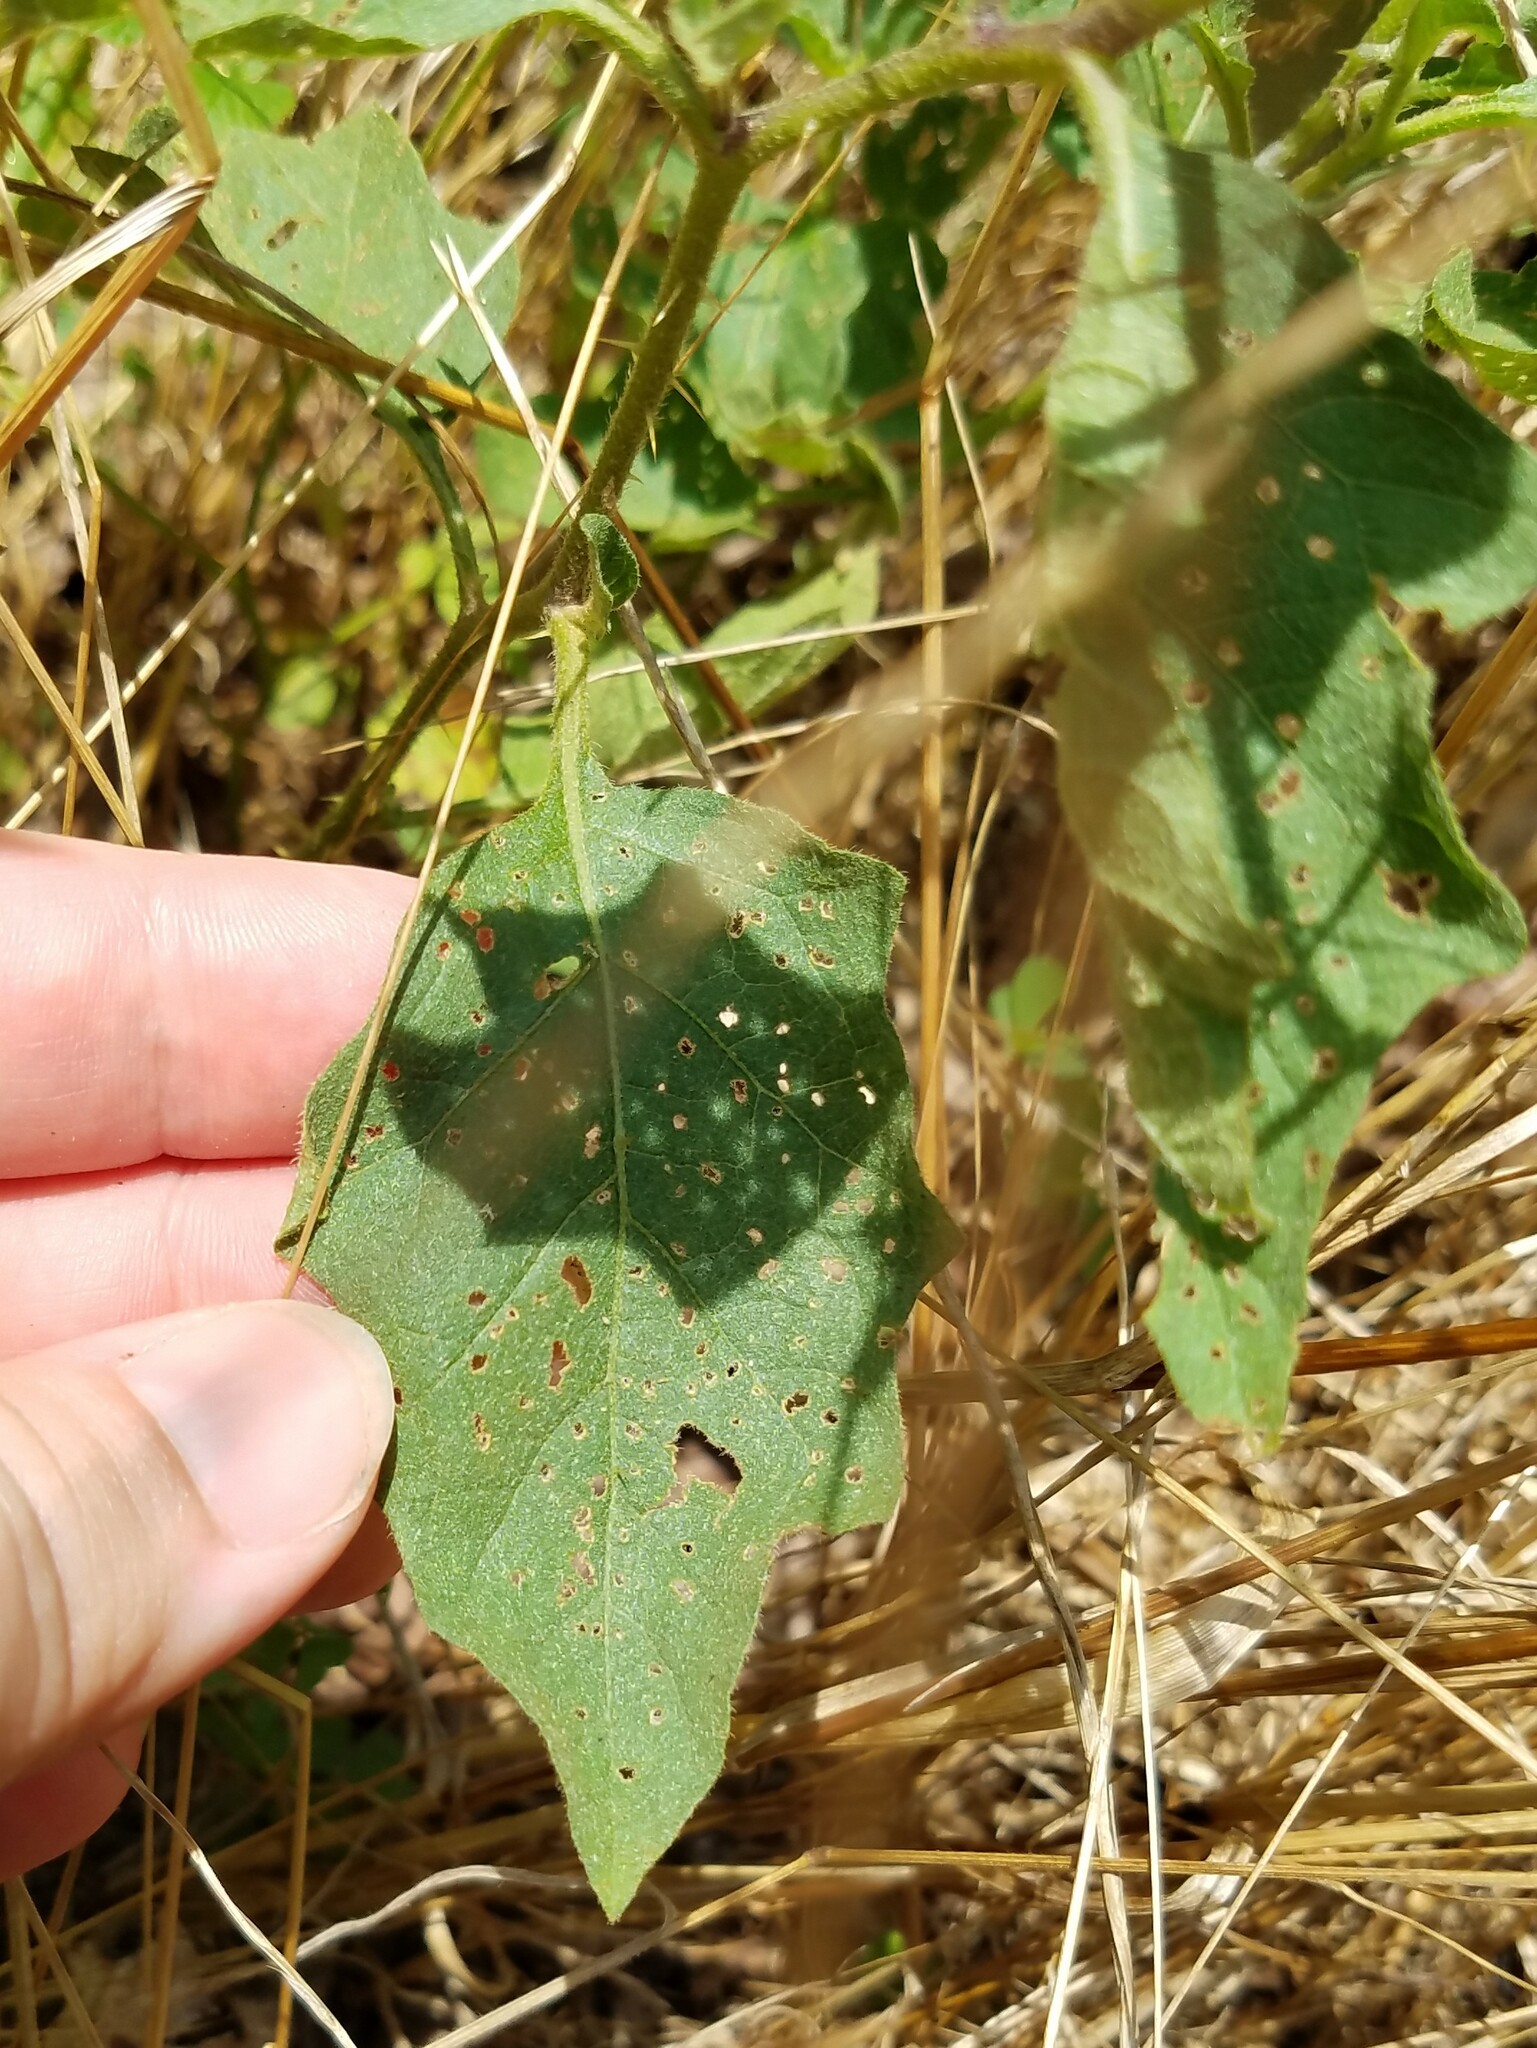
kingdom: Plantae
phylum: Tracheophyta
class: Magnoliopsida
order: Solanales
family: Solanaceae
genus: Solanum
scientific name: Solanum carolinense
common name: Horse-nettle
